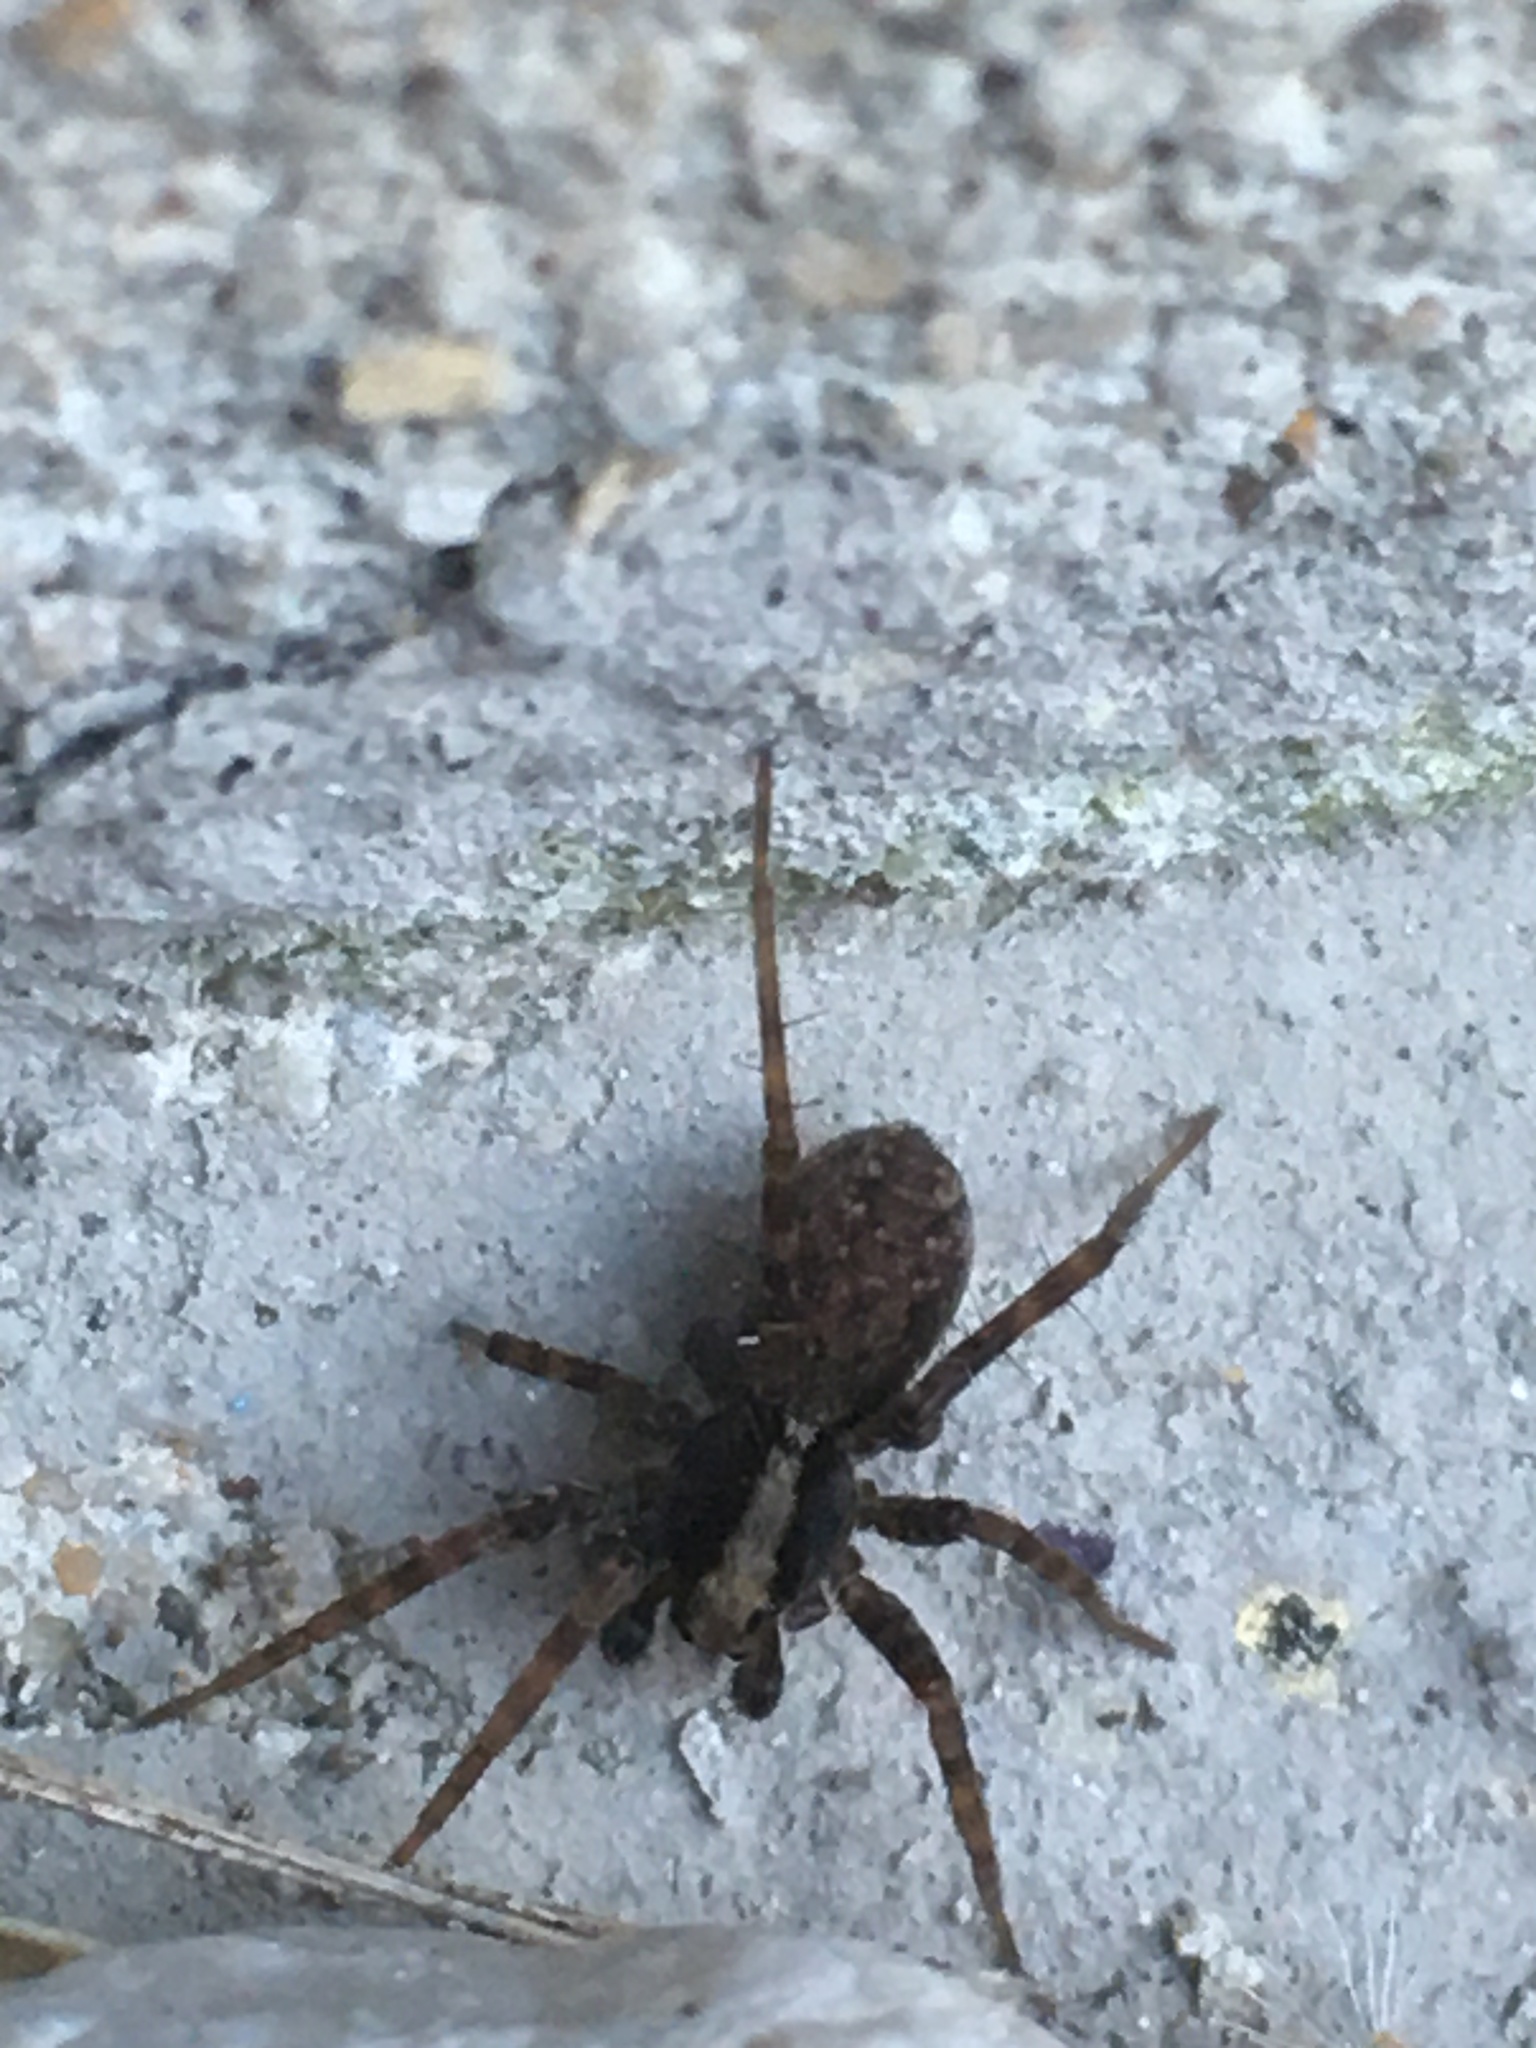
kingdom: Animalia
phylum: Arthropoda
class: Arachnida
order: Araneae
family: Lycosidae
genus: Pardosa
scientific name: Pardosa
